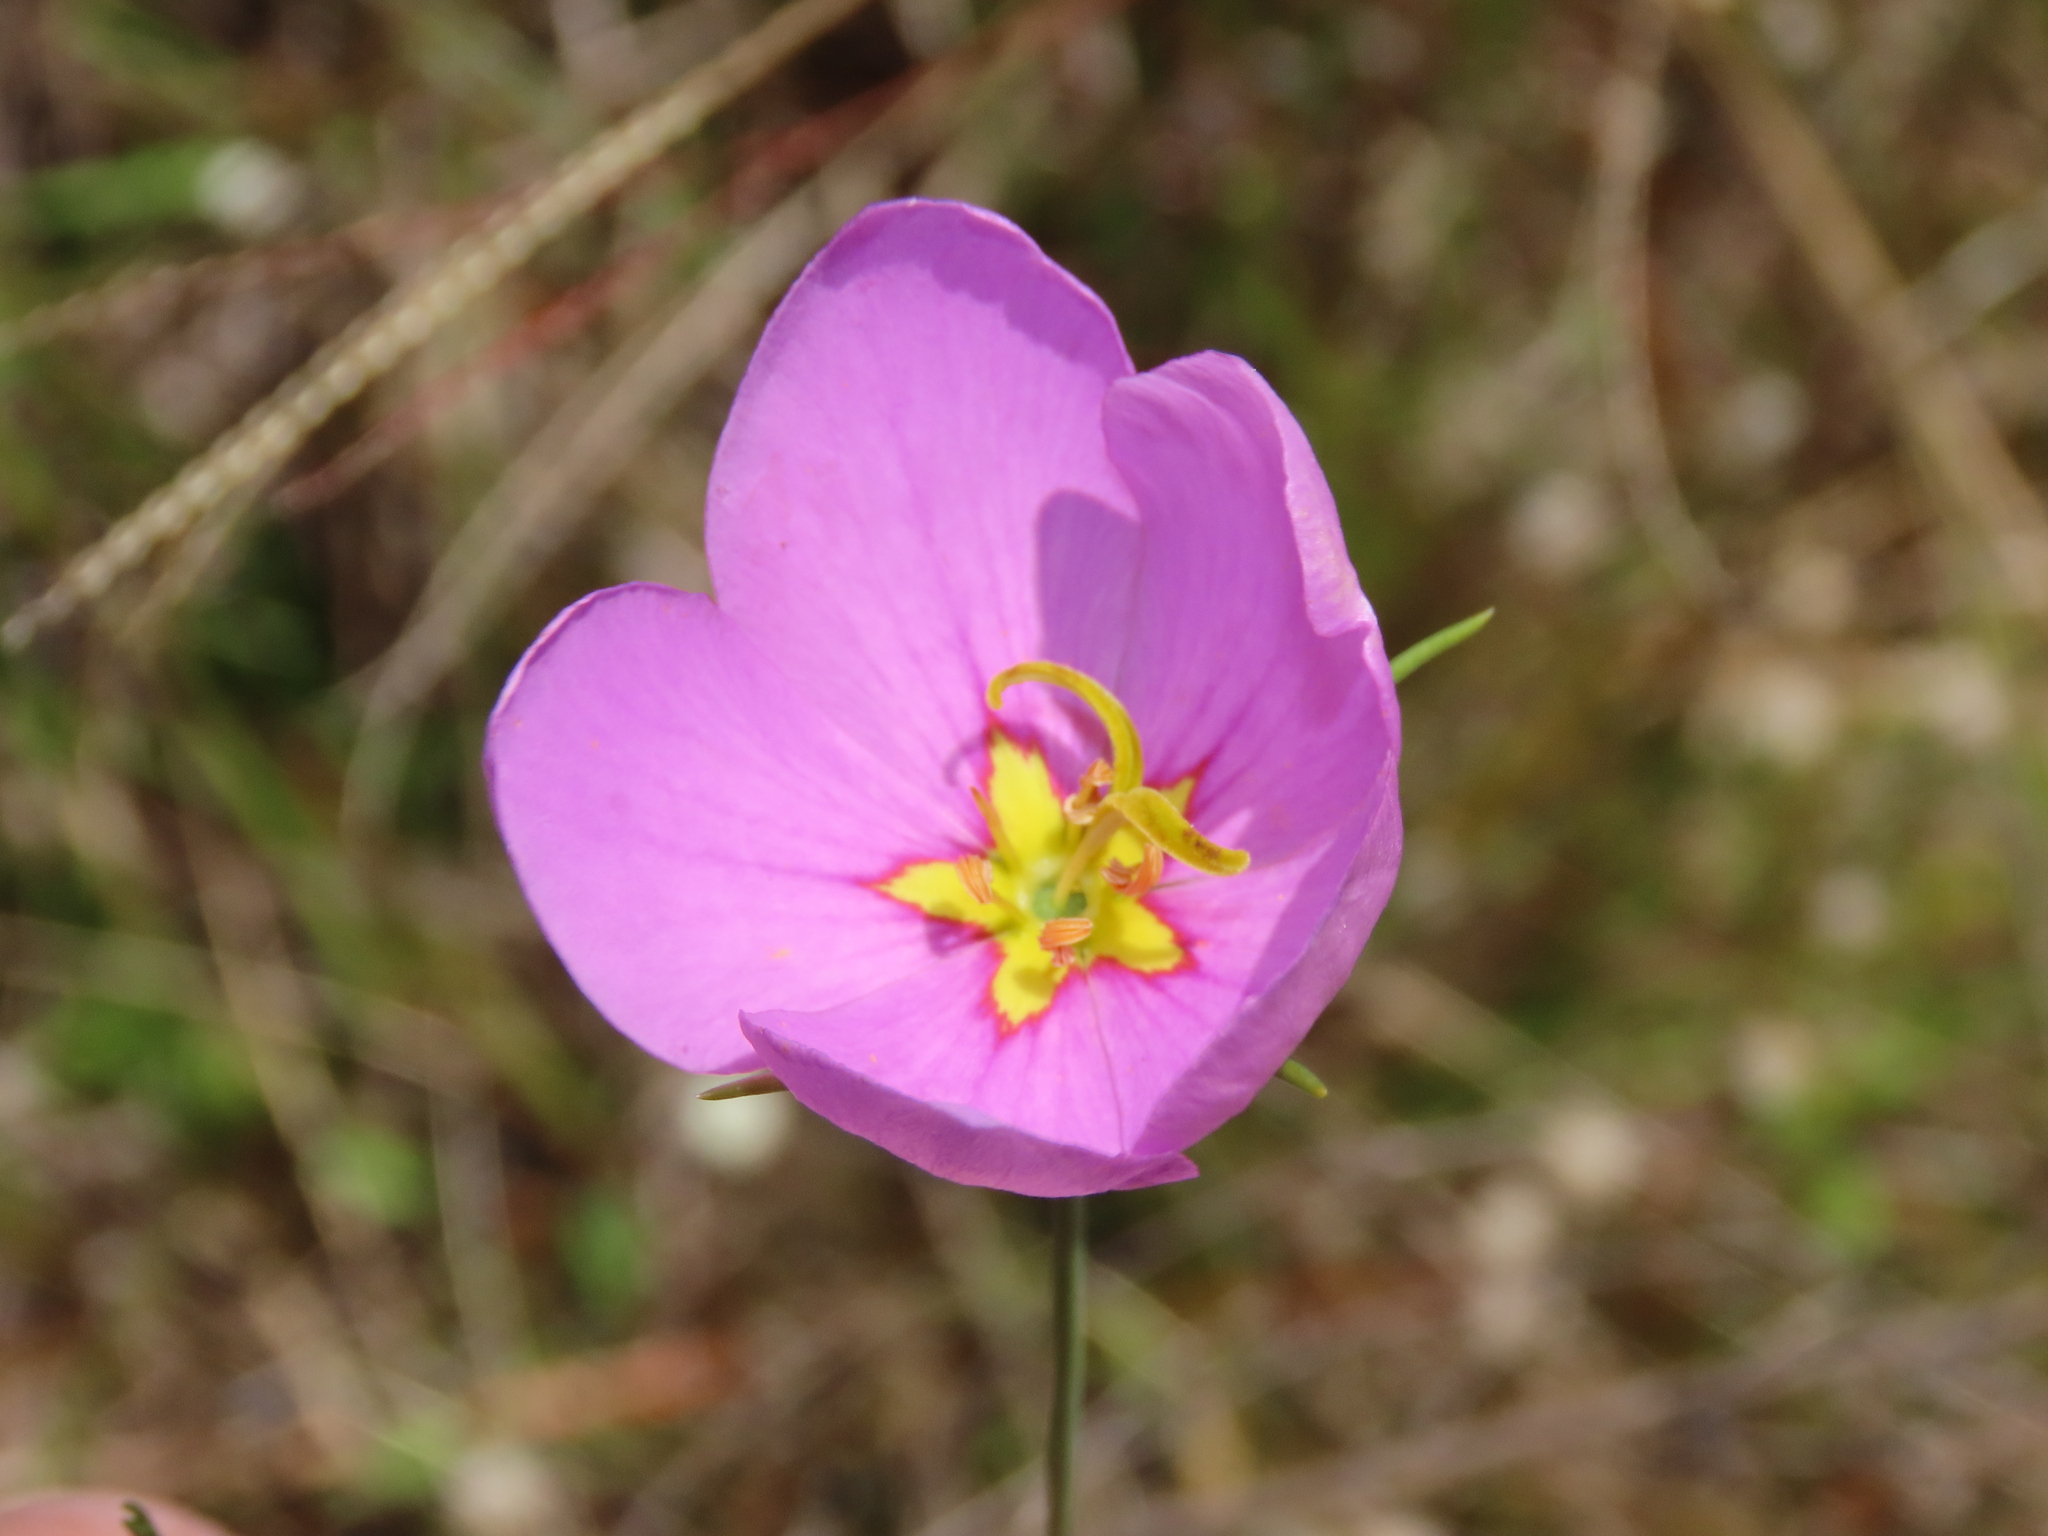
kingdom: Plantae
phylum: Tracheophyta
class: Magnoliopsida
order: Gentianales
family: Gentianaceae
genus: Sabatia
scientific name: Sabatia grandiflora
